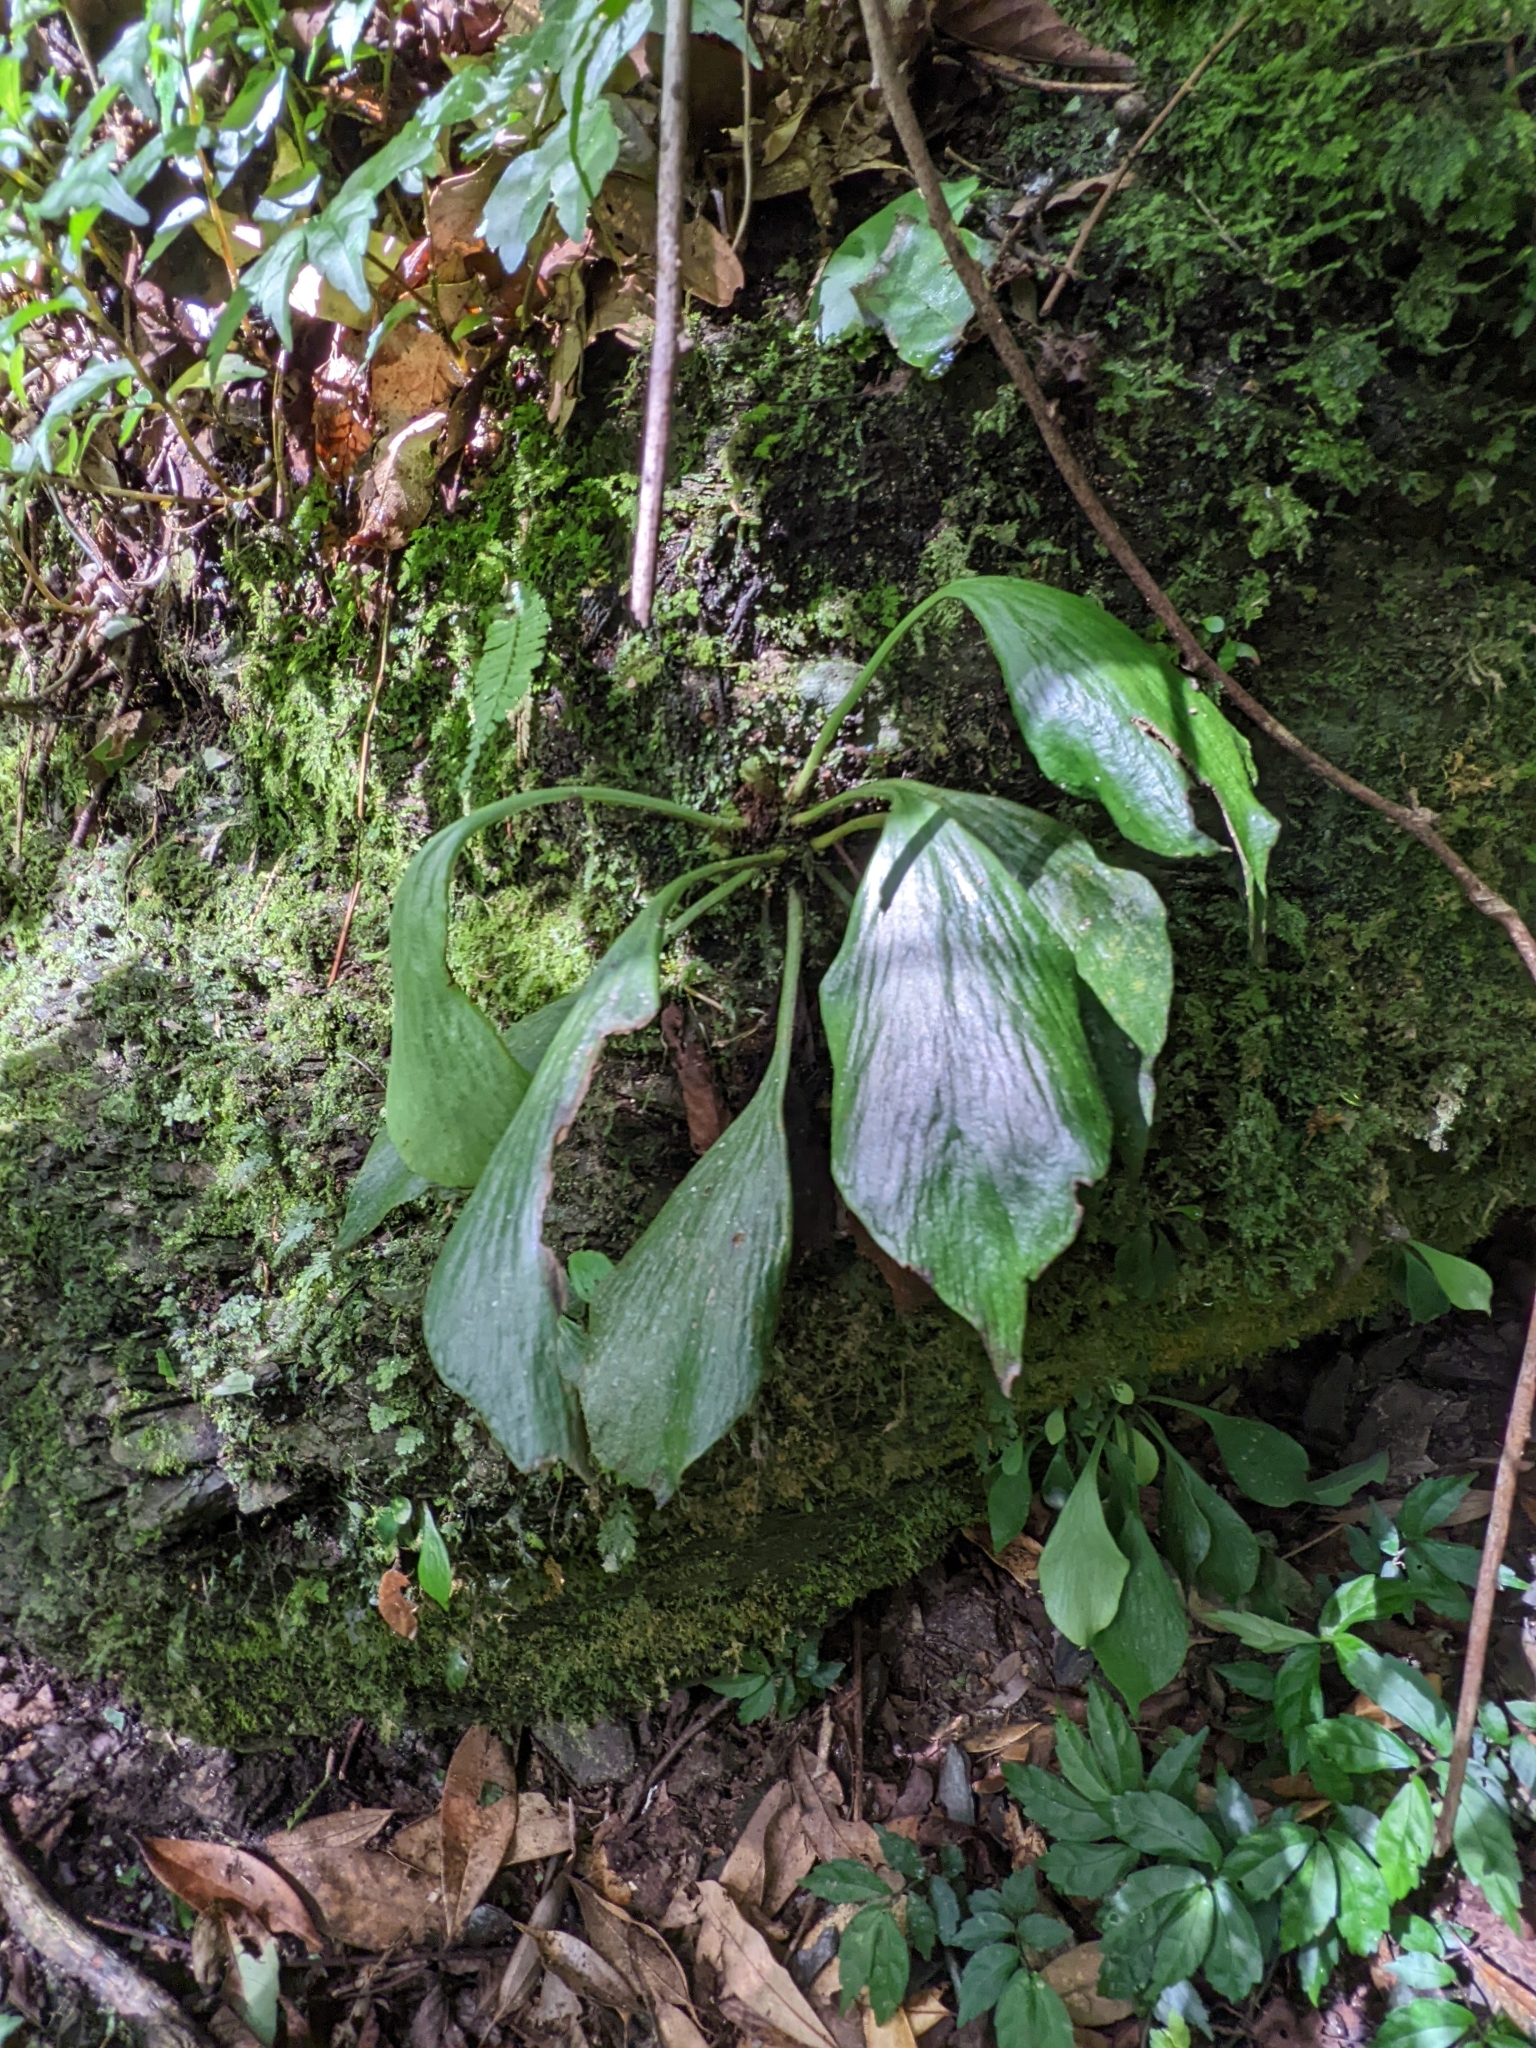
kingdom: Plantae
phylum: Tracheophyta
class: Polypodiopsida
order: Polypodiales
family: Pteridaceae
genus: Antrophyum
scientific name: Antrophyum formosanum
